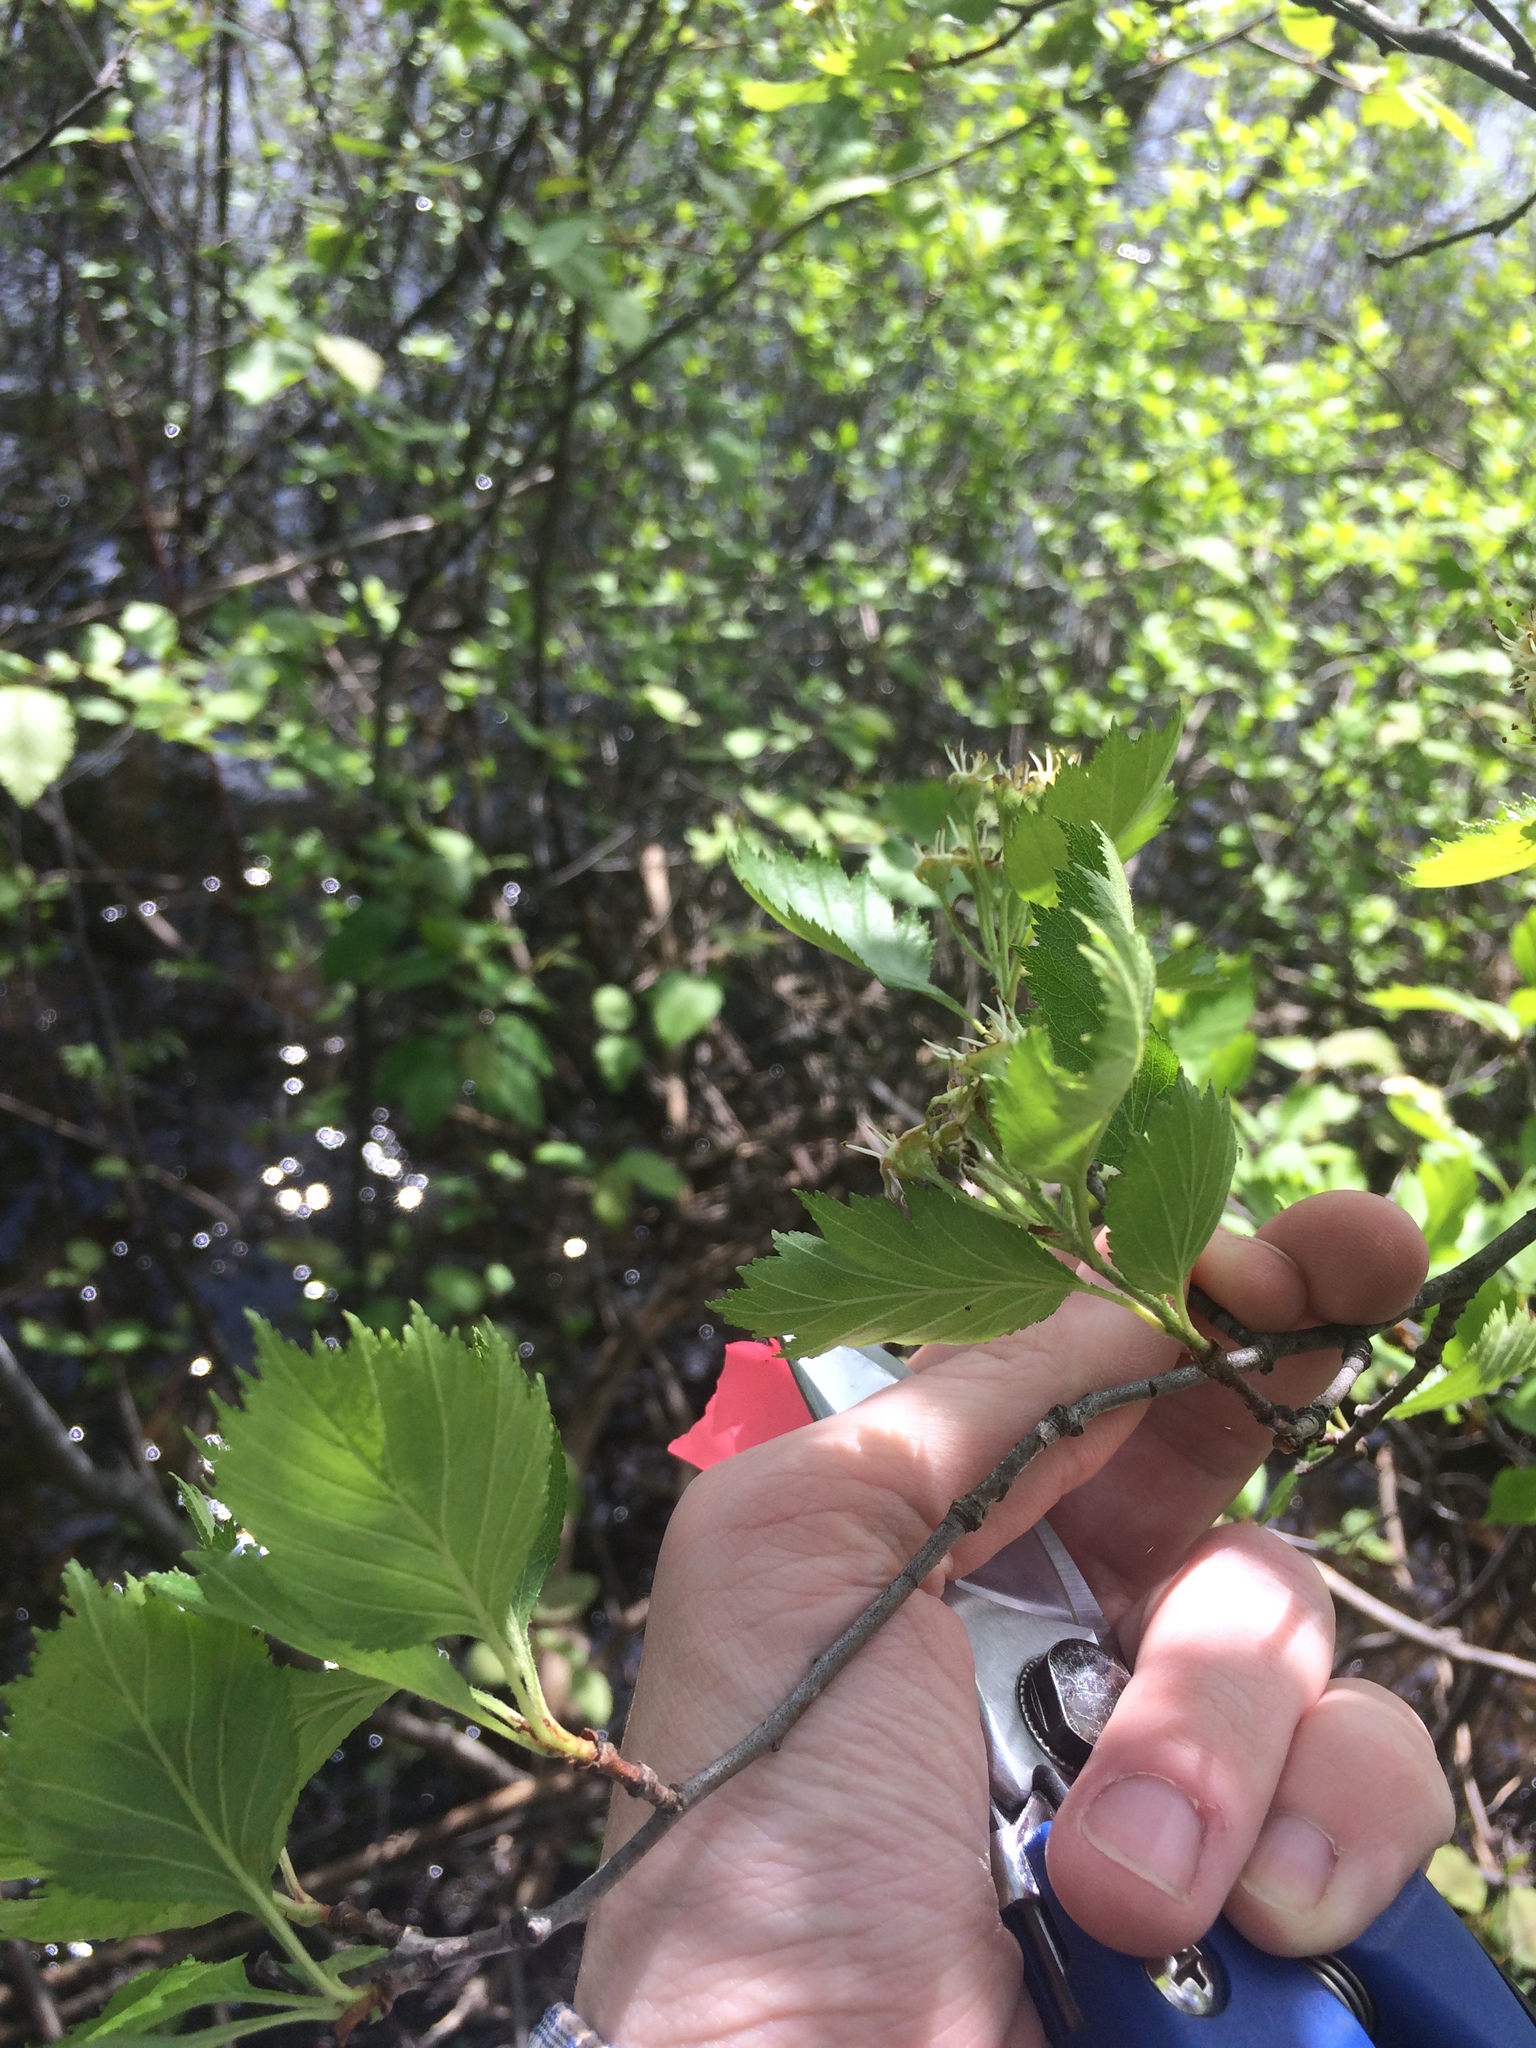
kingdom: Plantae
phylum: Tracheophyta
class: Magnoliopsida
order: Rosales
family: Rosaceae
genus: Crataegus
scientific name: Crataegus chrysocarpa
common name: Fire-berry hawthorn
